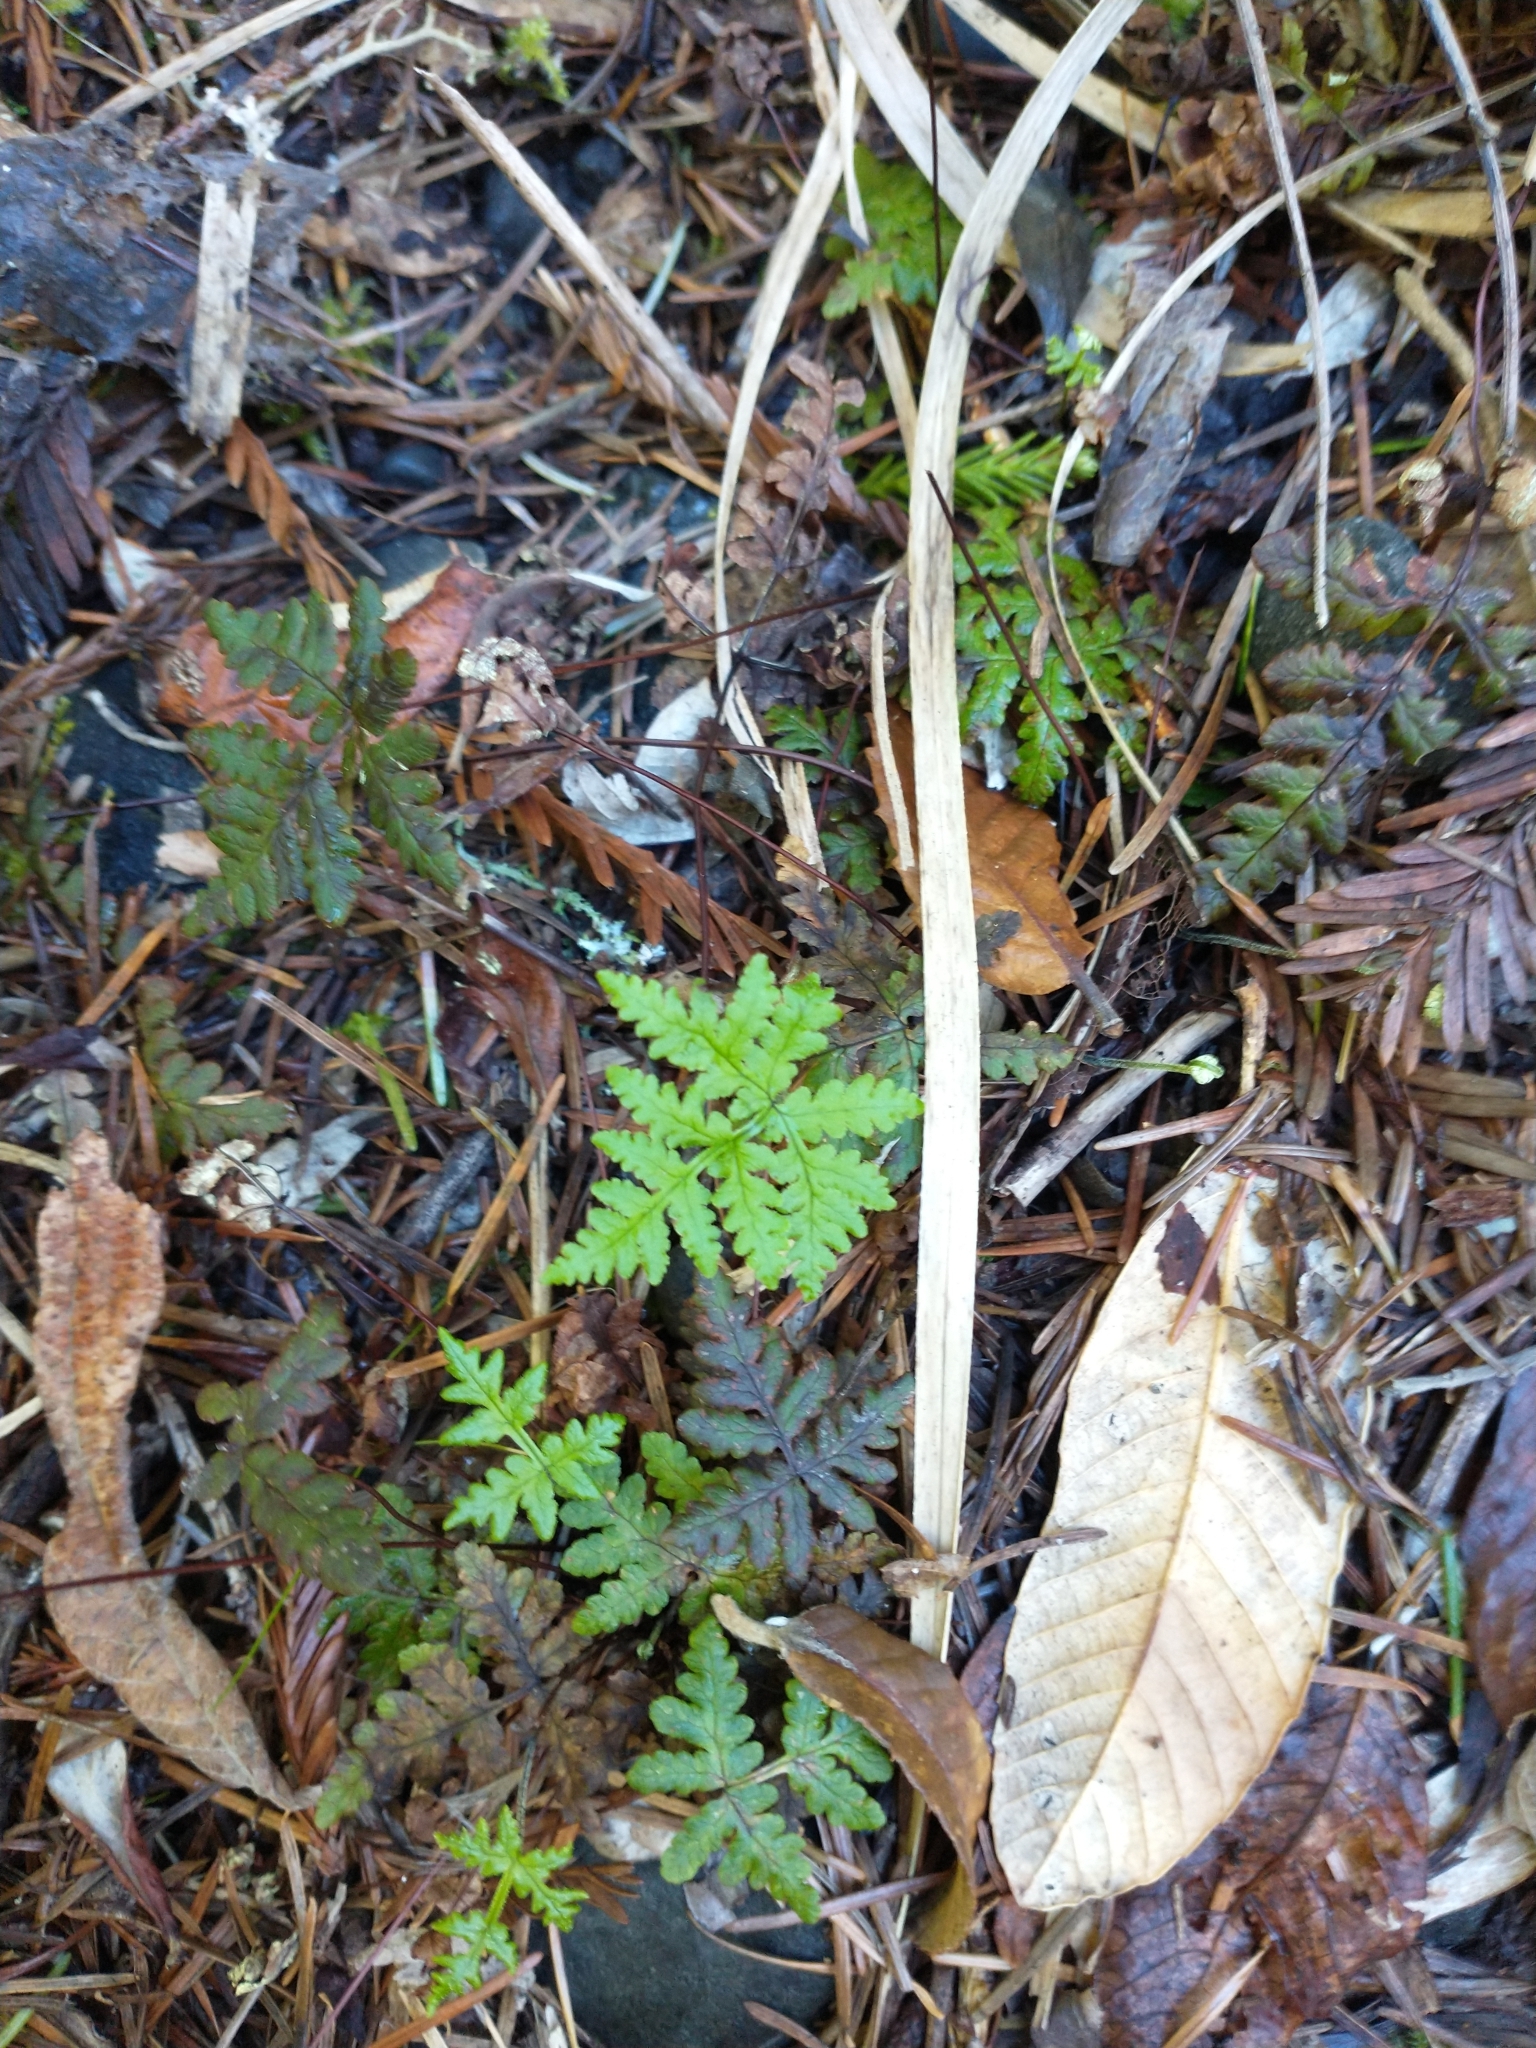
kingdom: Plantae
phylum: Tracheophyta
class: Polypodiopsida
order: Polypodiales
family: Pteridaceae
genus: Pentagramma
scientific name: Pentagramma triangularis
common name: Gold fern
